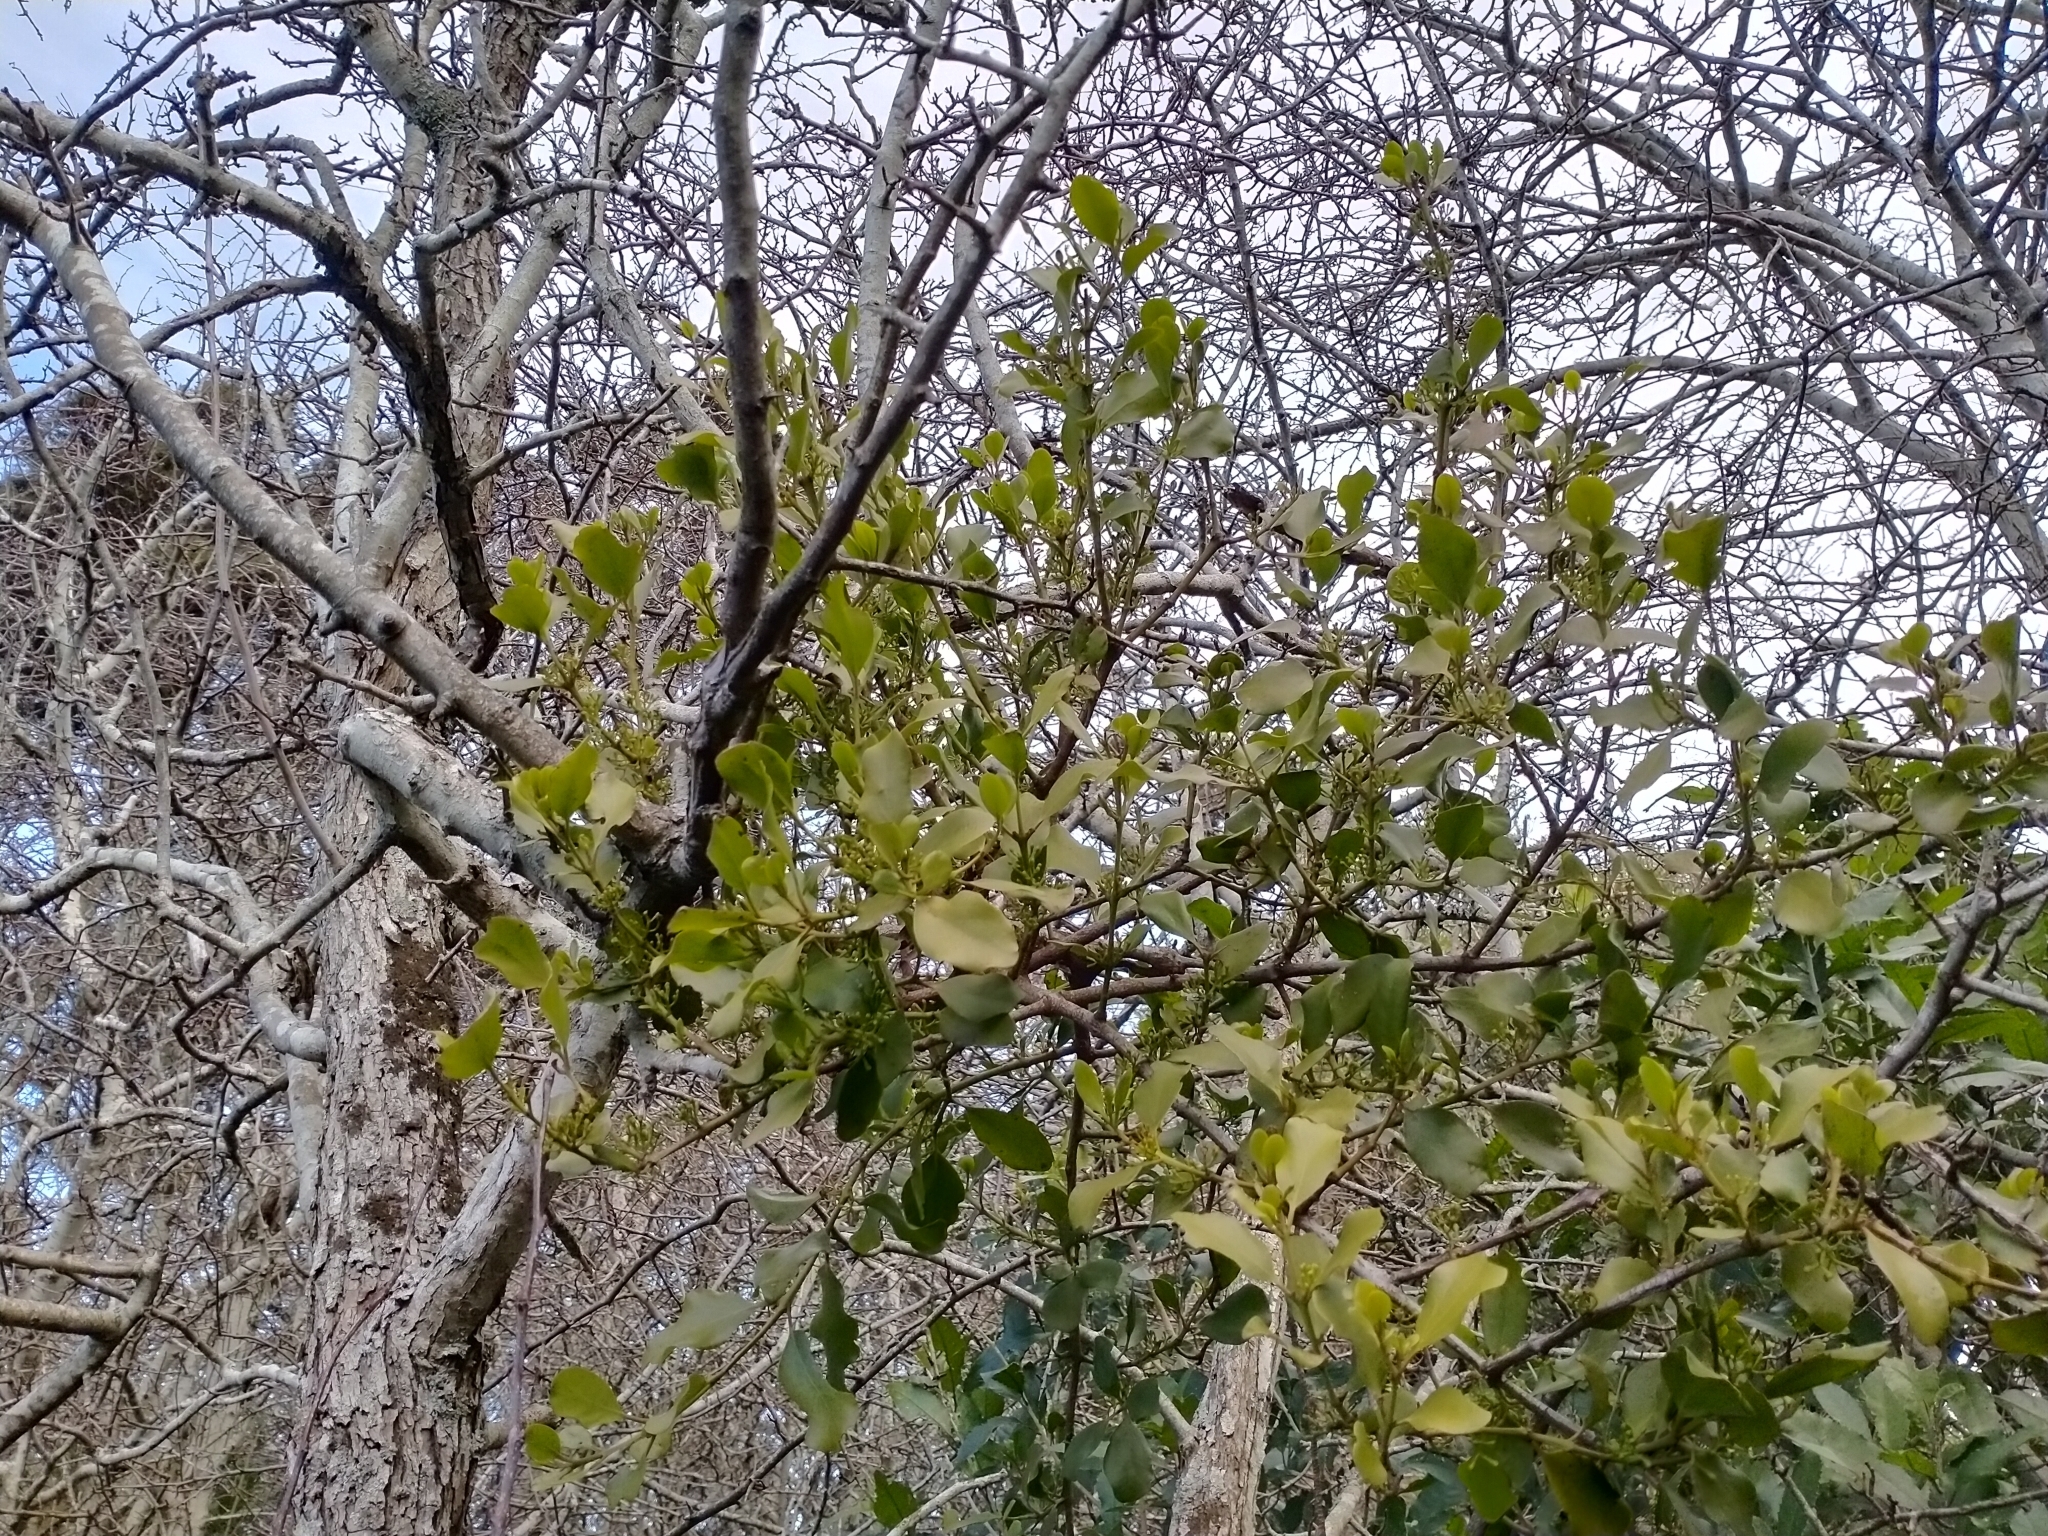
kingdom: Plantae
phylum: Tracheophyta
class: Magnoliopsida
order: Santalales
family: Loranthaceae
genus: Ileostylus
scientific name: Ileostylus micranthus
